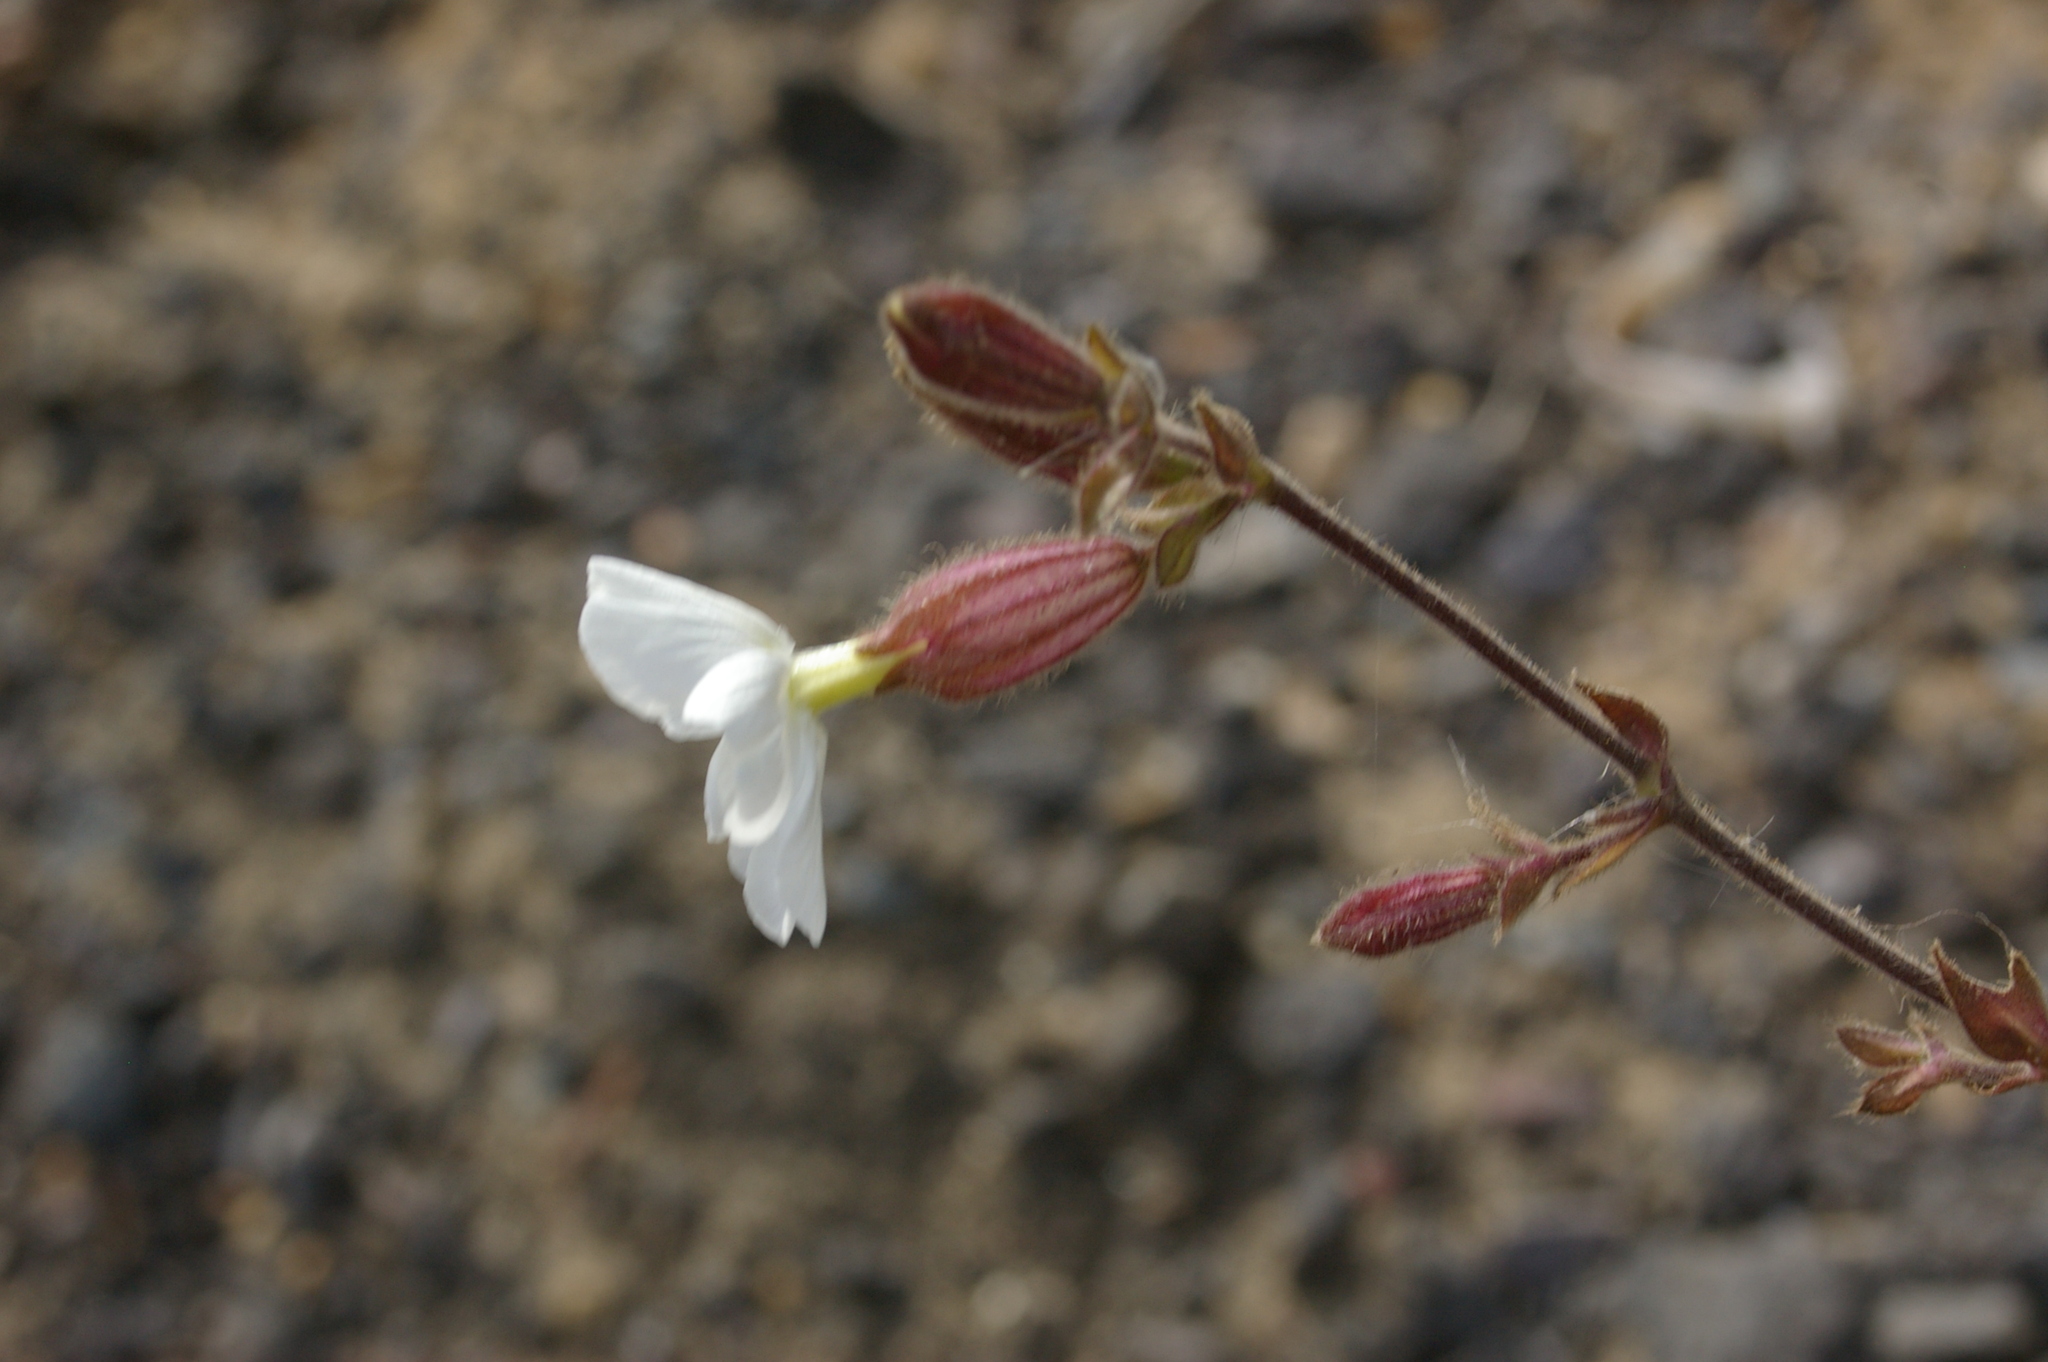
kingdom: Plantae
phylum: Tracheophyta
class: Magnoliopsida
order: Caryophyllales
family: Caryophyllaceae
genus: Silene
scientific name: Silene latifolia
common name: White campion
